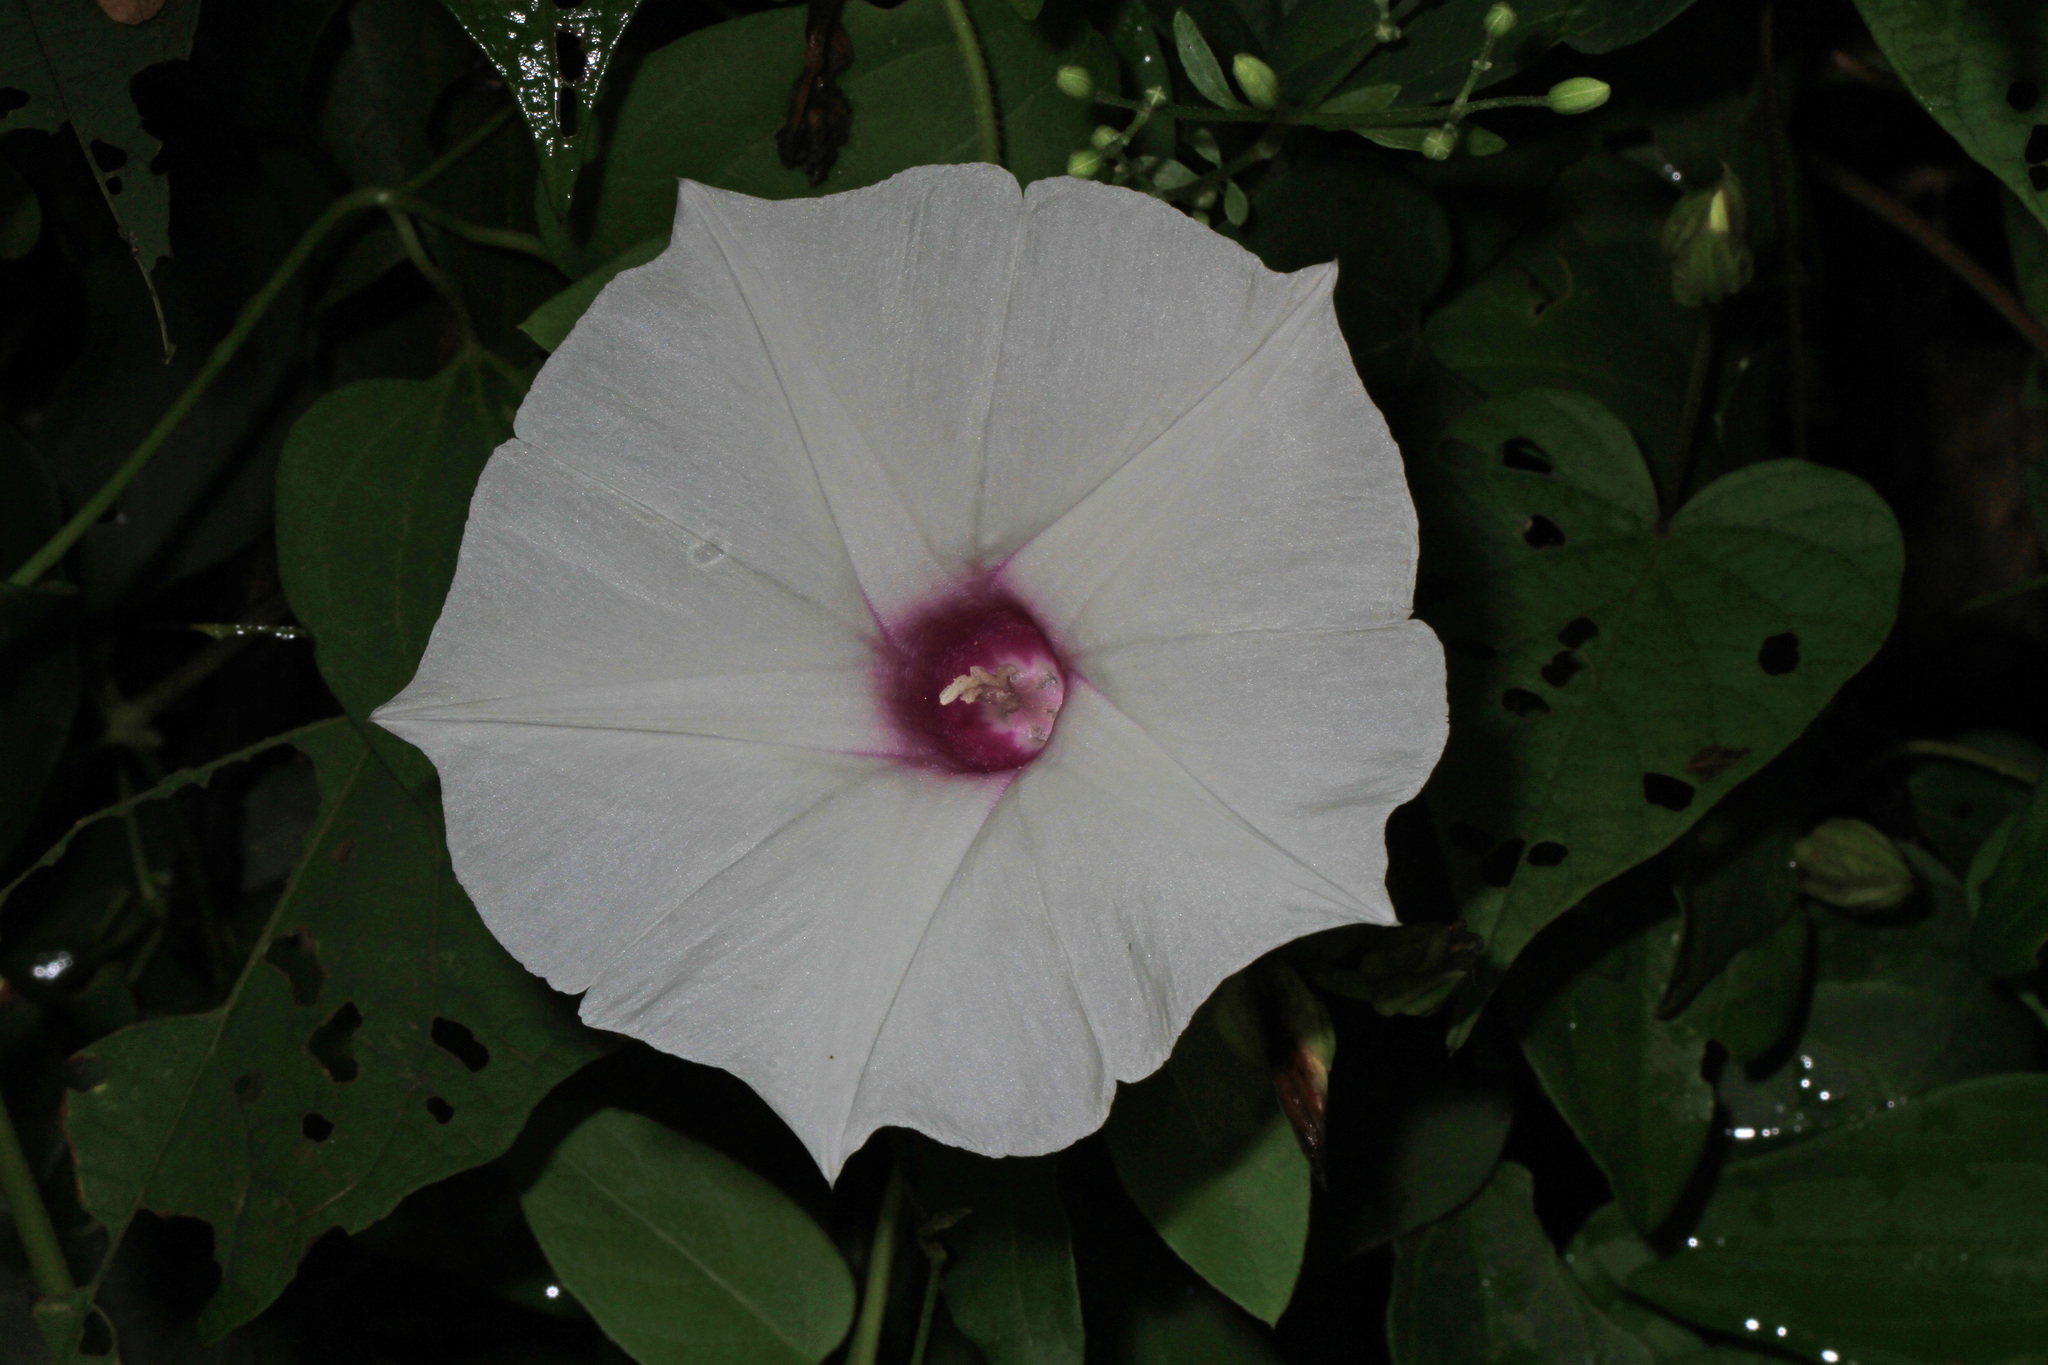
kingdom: Plantae
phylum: Tracheophyta
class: Magnoliopsida
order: Solanales
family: Convolvulaceae
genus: Ipomoea
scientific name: Ipomoea pandurata
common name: Man-of-the-earth
